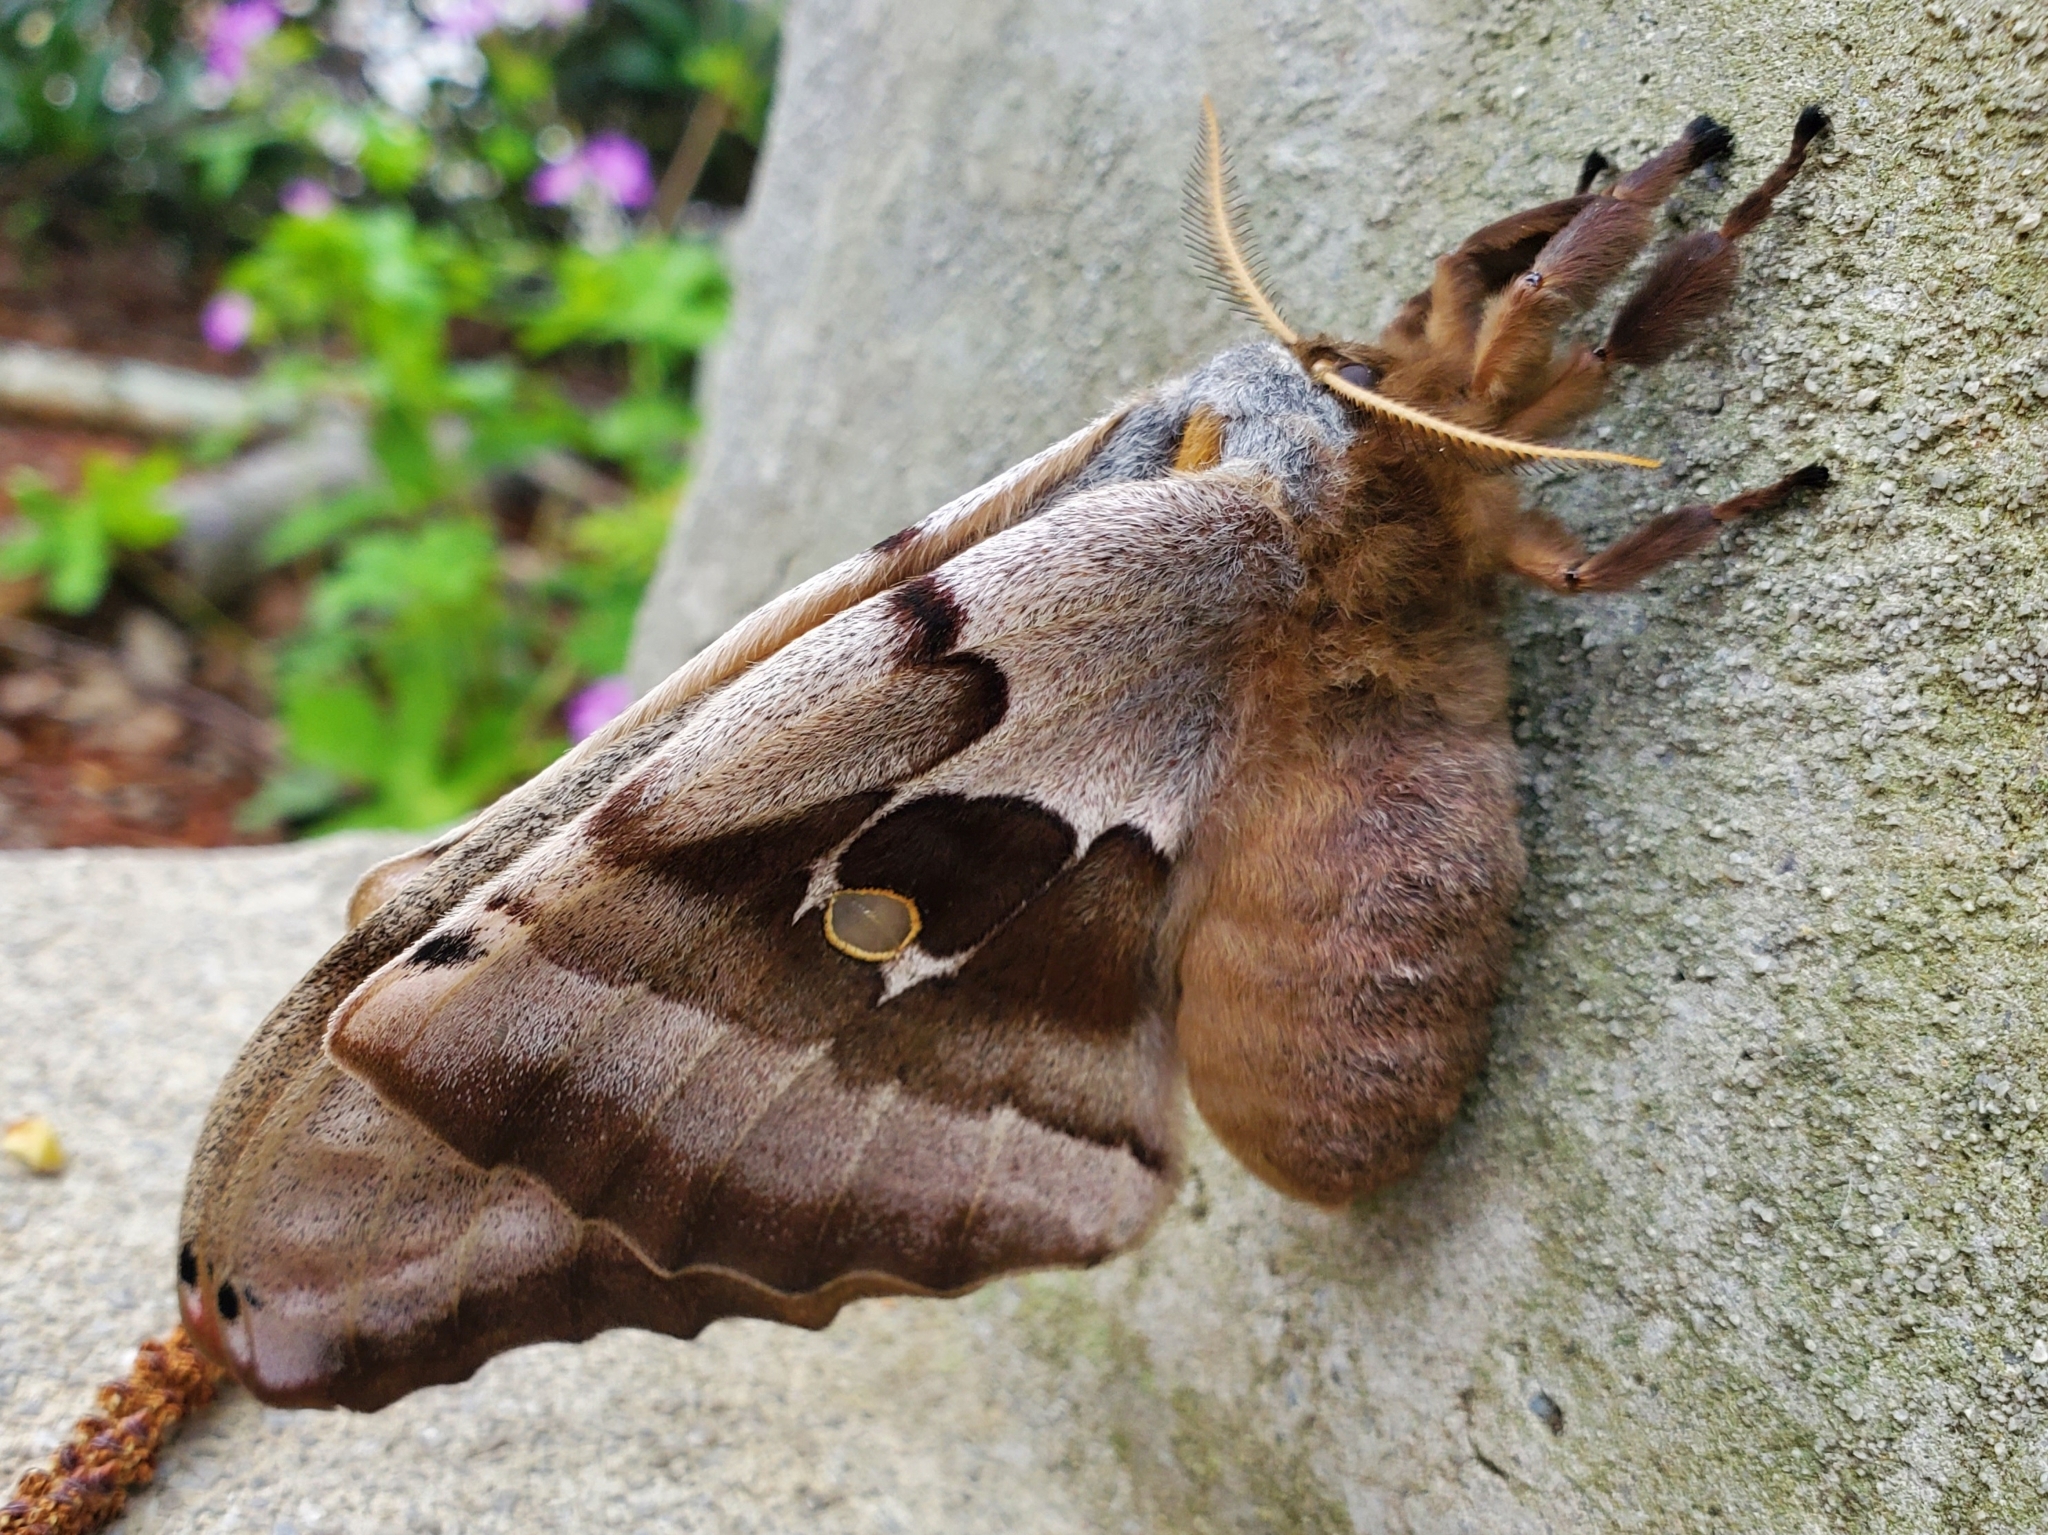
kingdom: Animalia
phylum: Arthropoda
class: Insecta
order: Lepidoptera
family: Saturniidae
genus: Antheraea
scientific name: Antheraea polyphemus
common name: Polyphemus moth
